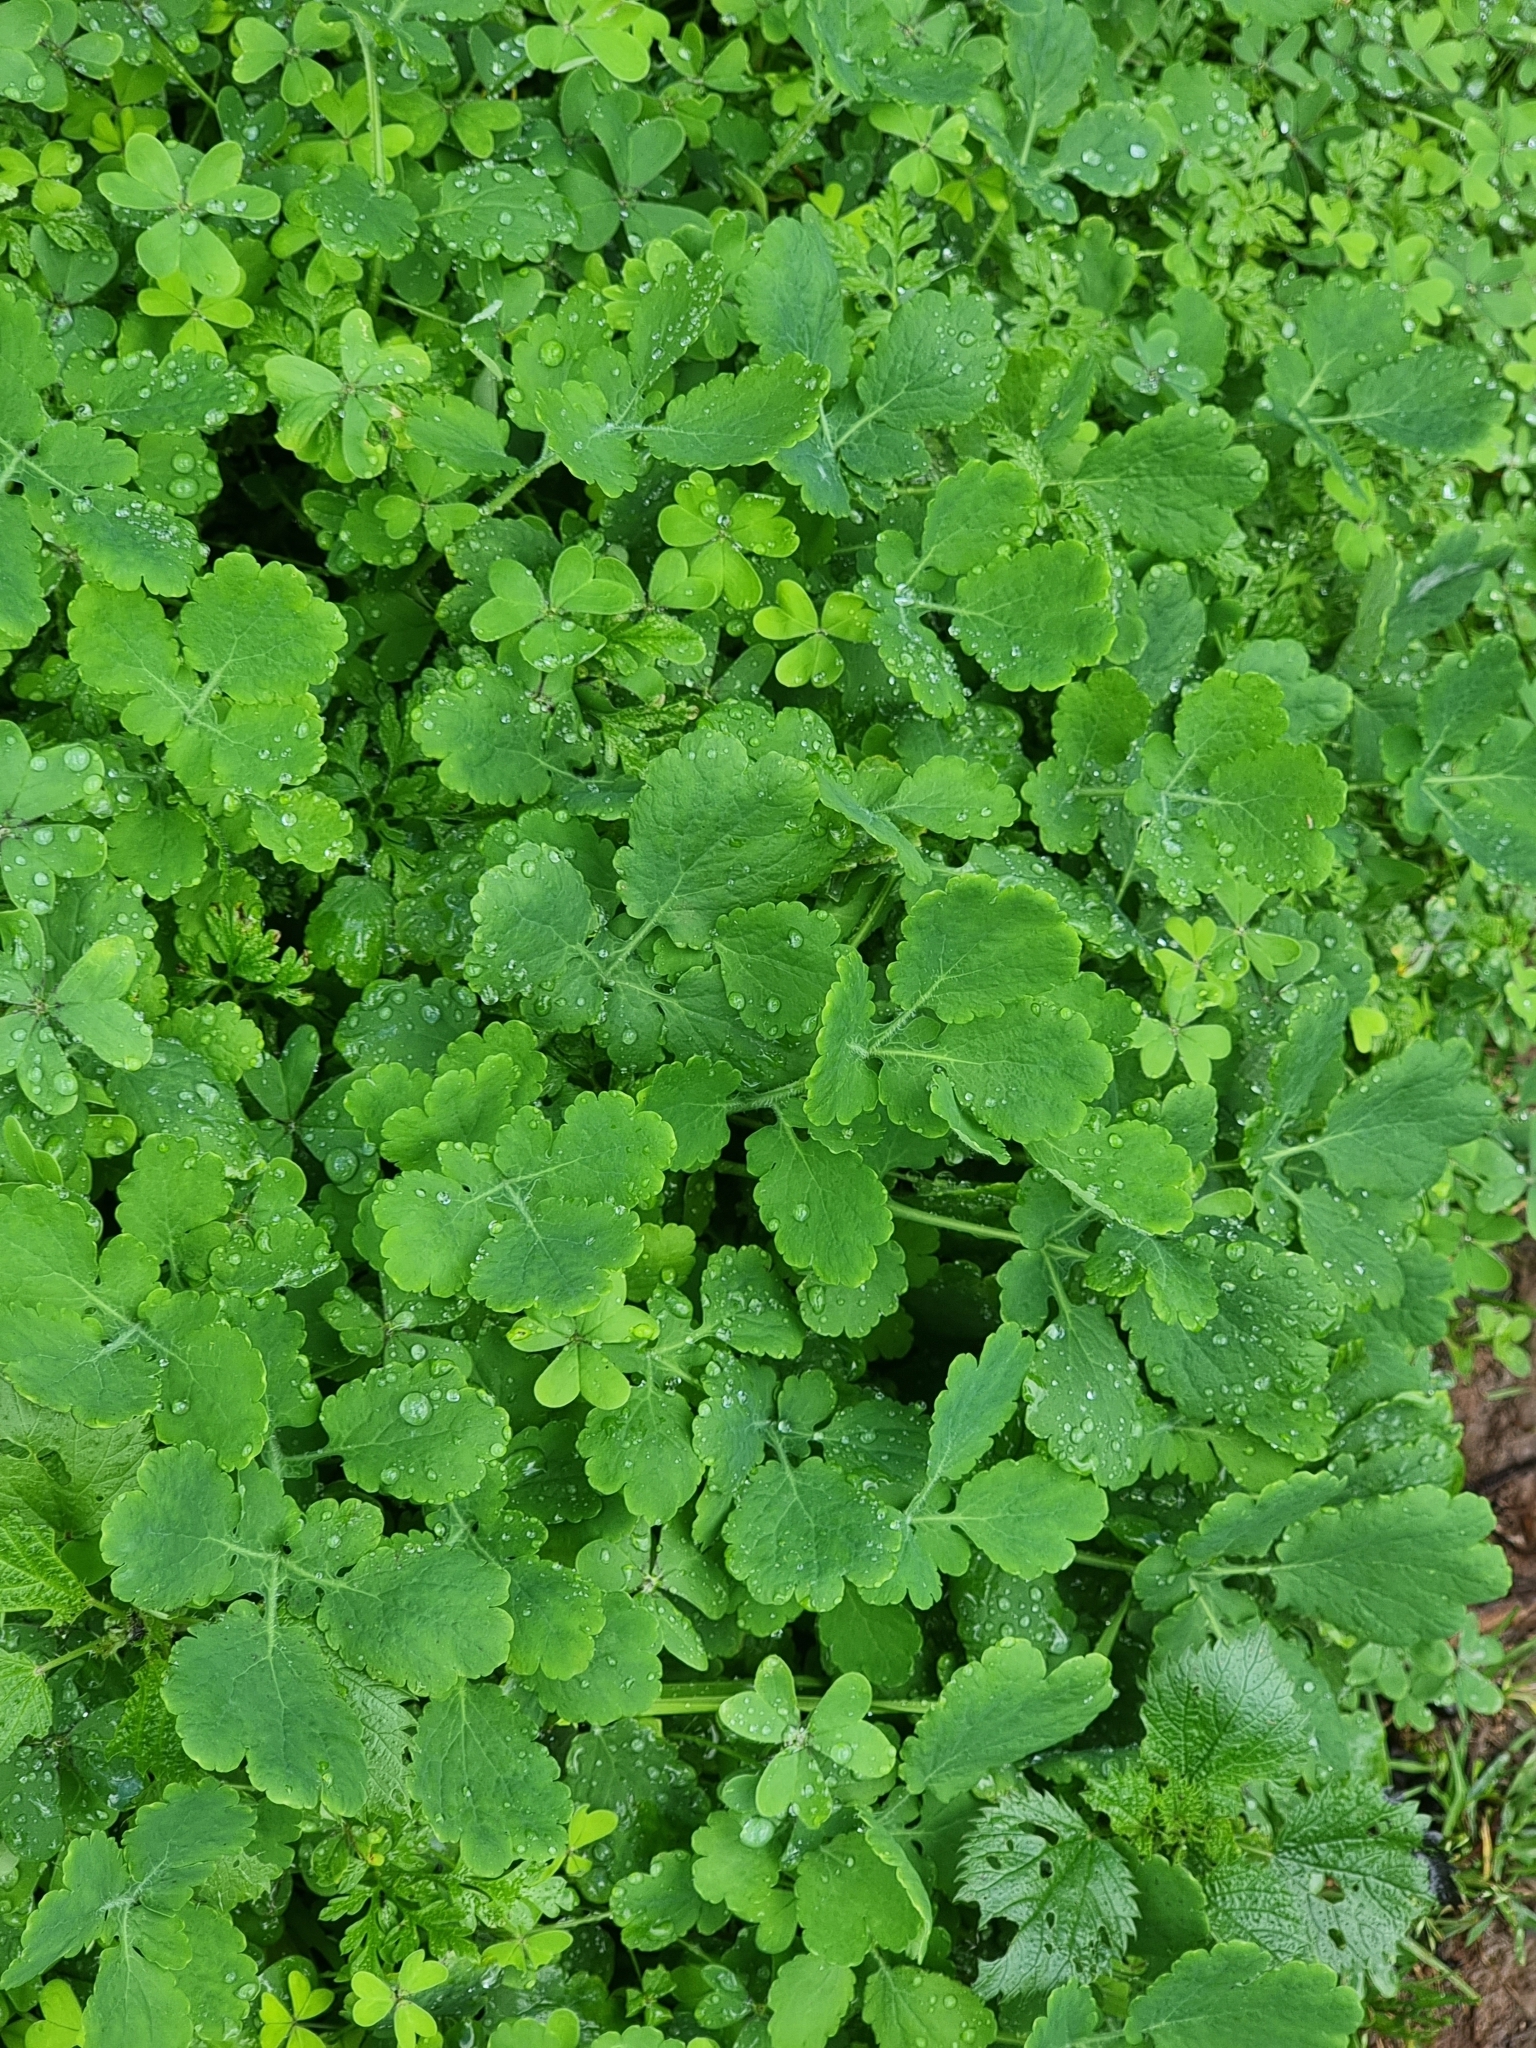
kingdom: Plantae
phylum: Tracheophyta
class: Magnoliopsida
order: Ranunculales
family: Papaveraceae
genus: Chelidonium
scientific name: Chelidonium majus
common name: Greater celandine
